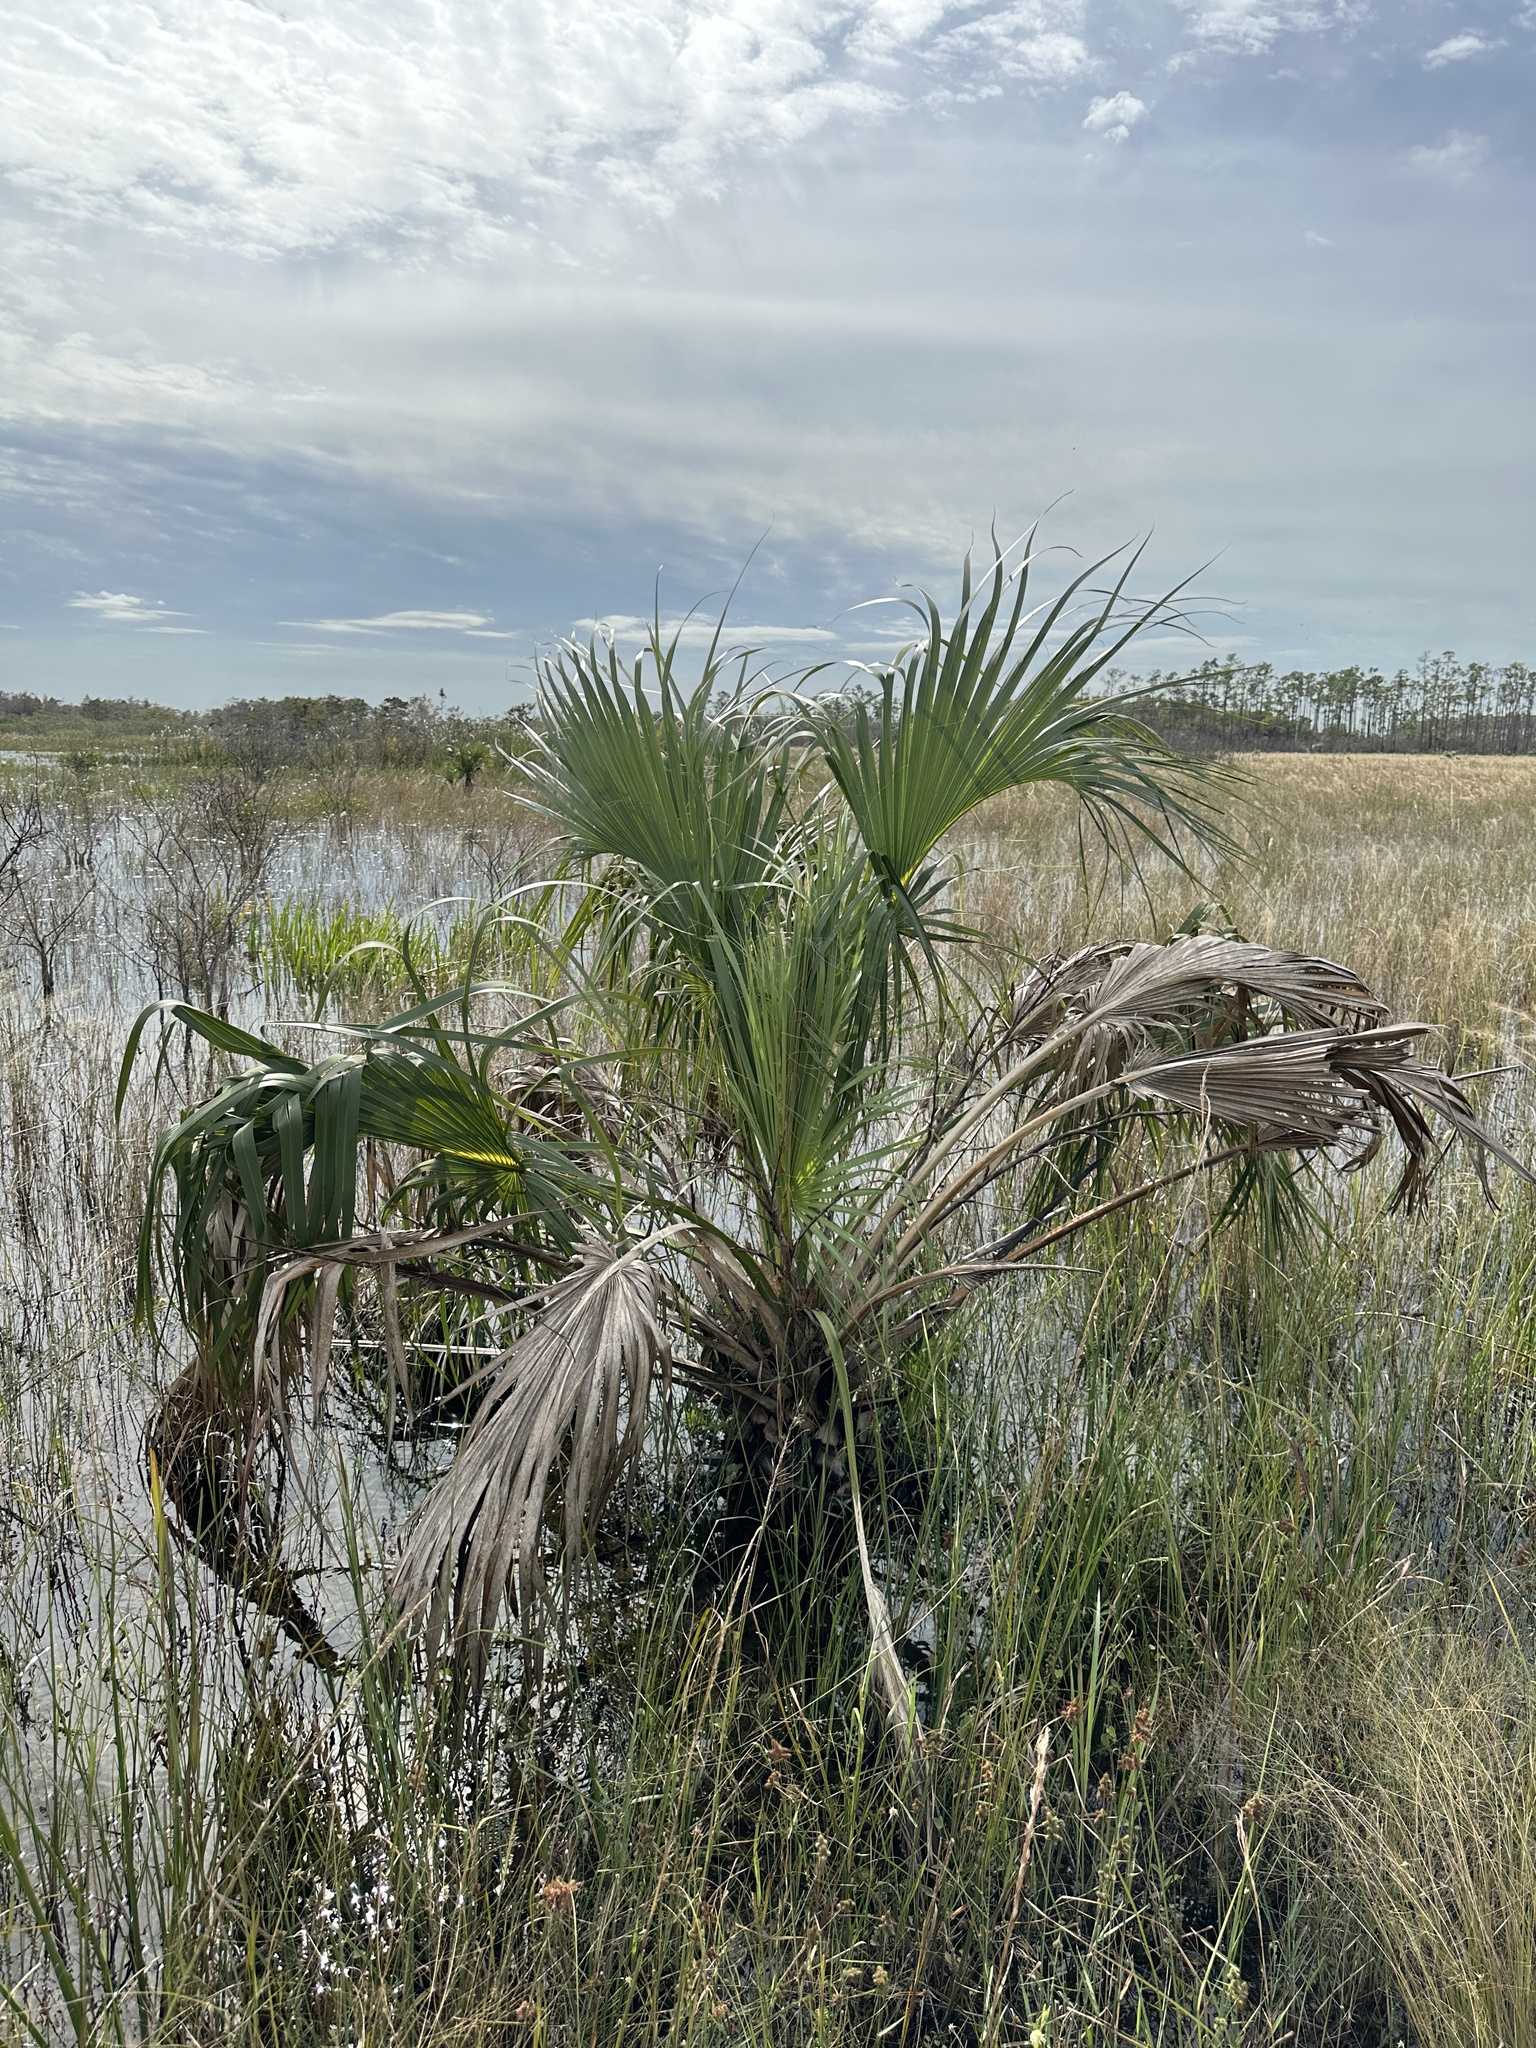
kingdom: Plantae
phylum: Tracheophyta
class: Liliopsida
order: Arecales
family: Arecaceae
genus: Sabal
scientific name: Sabal palmetto
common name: Blue palmetto
